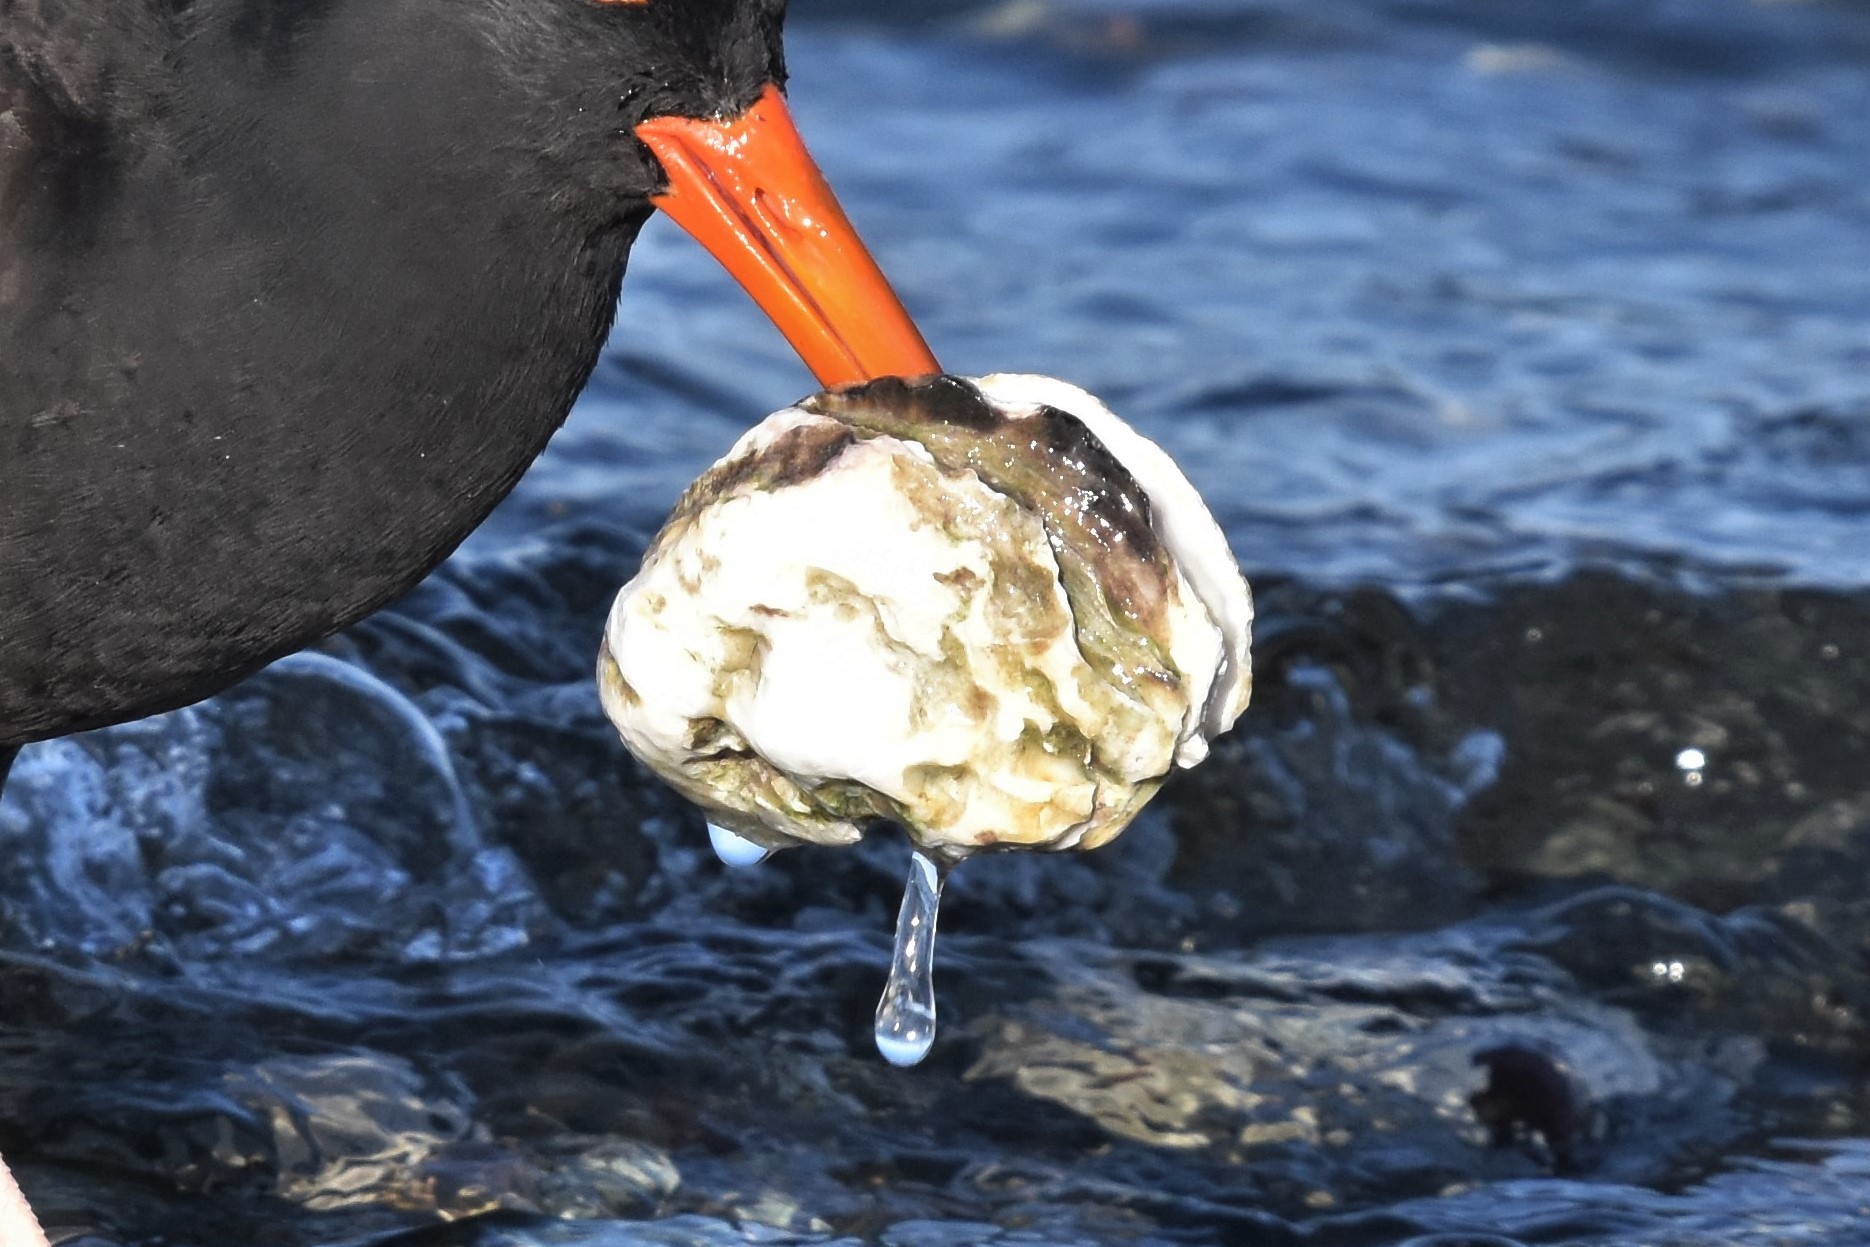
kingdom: Animalia
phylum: Mollusca
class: Bivalvia
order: Ostreida
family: Ostreidae
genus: Magallana
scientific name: Magallana gigas
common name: Pacific oyster
